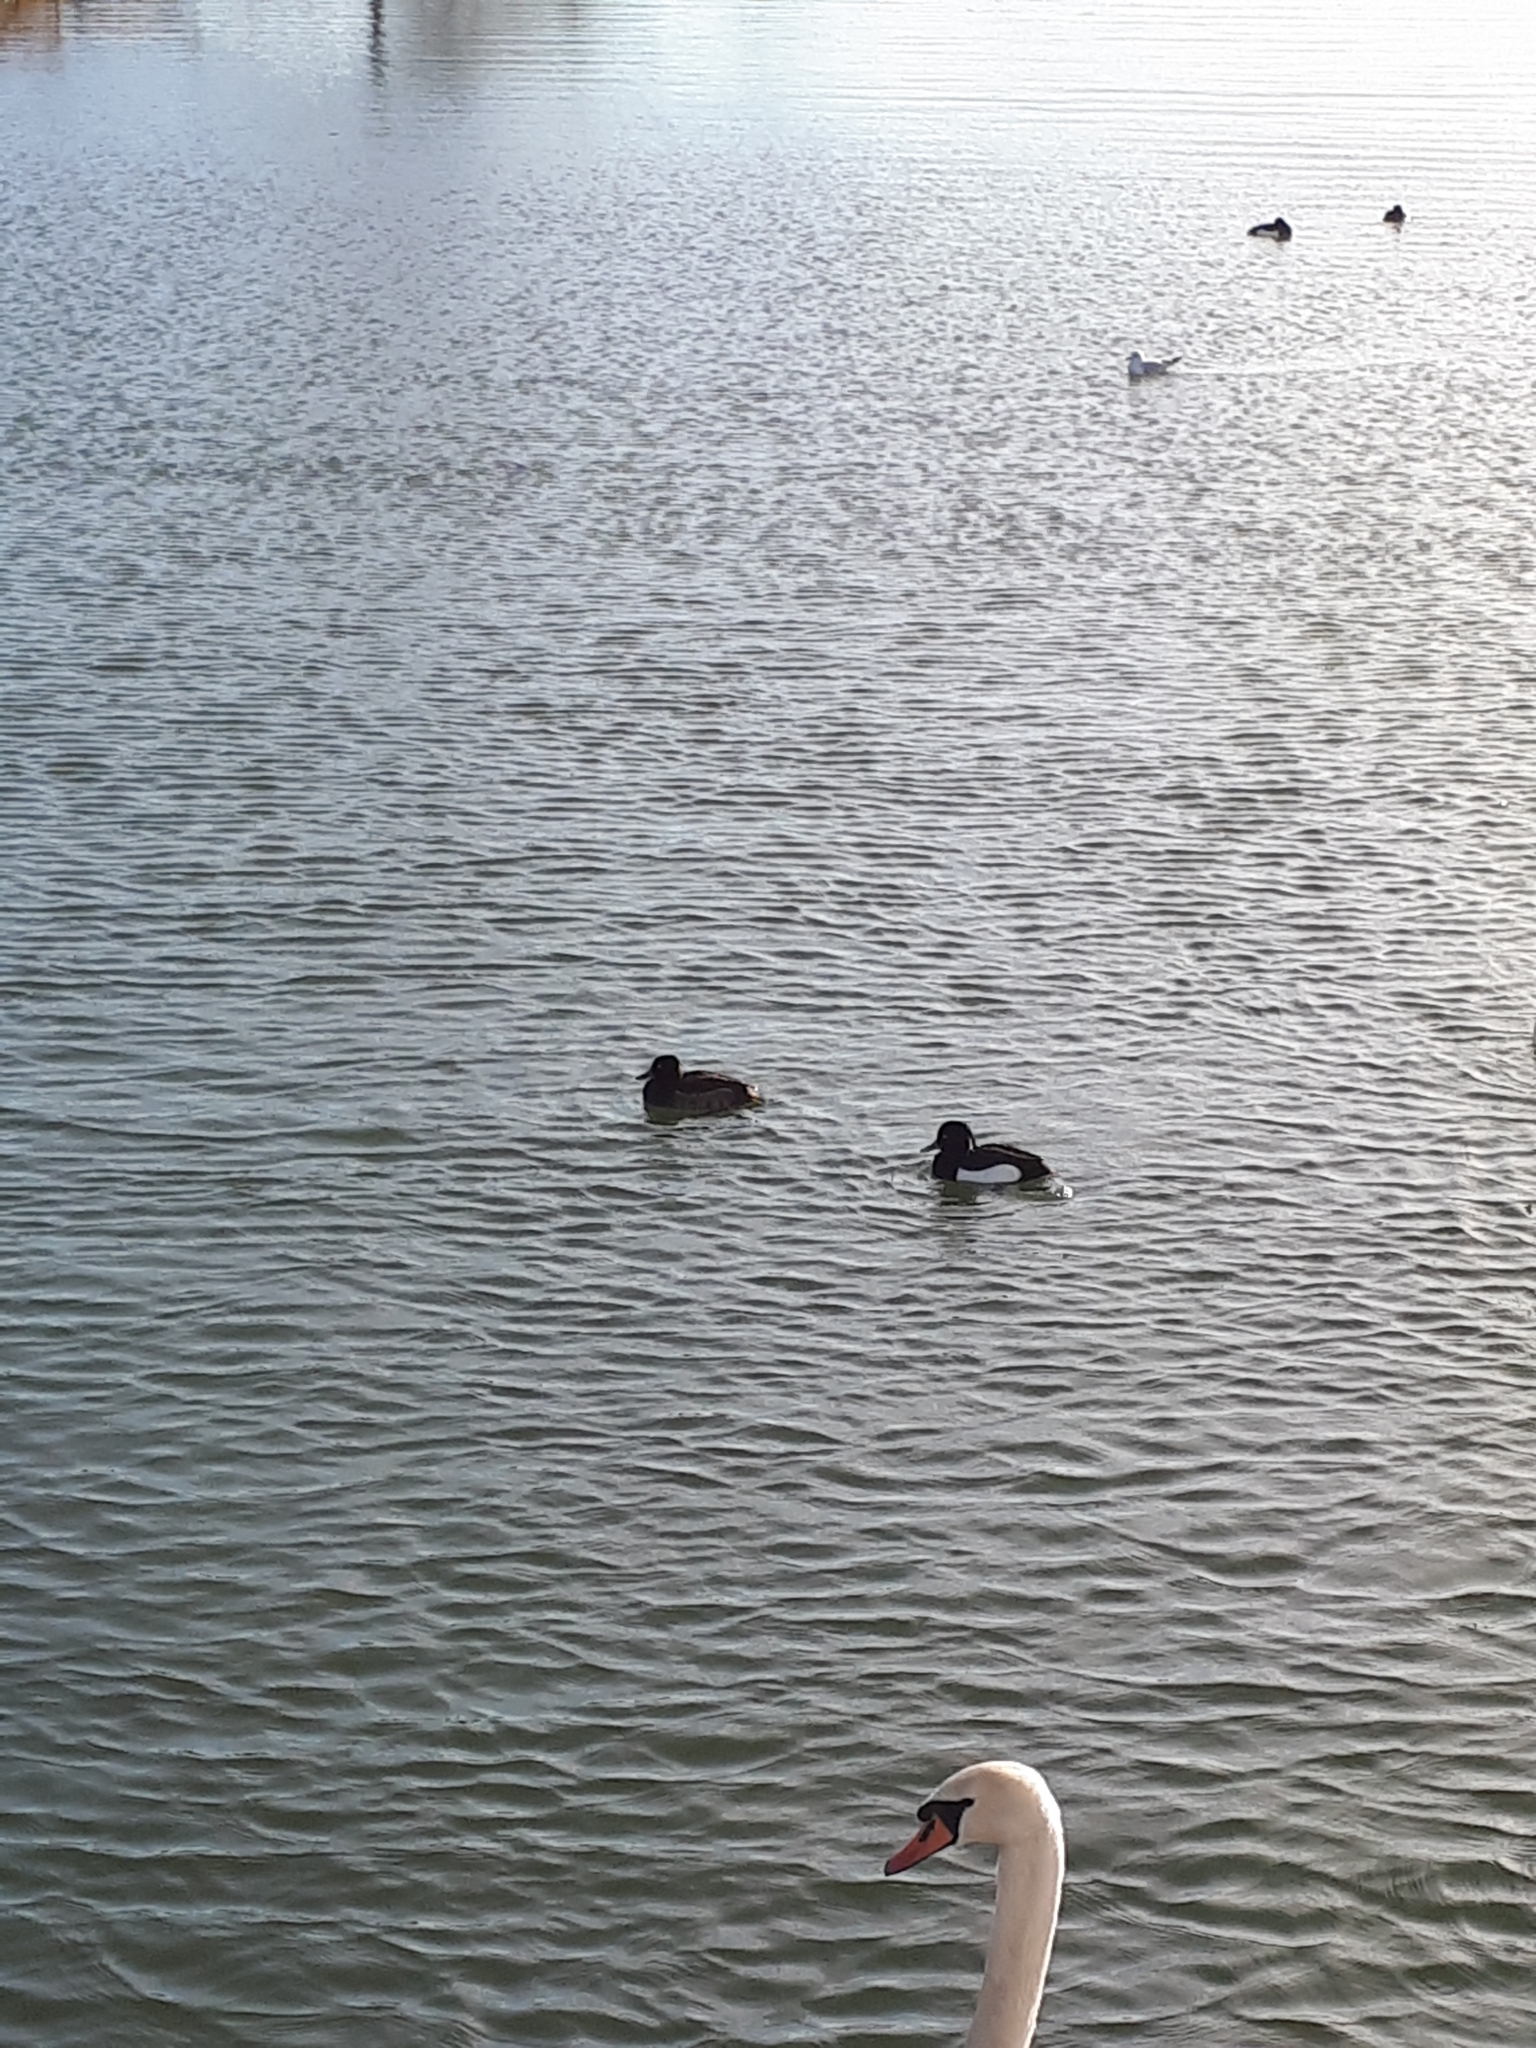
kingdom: Animalia
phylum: Chordata
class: Aves
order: Anseriformes
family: Anatidae
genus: Aythya
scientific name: Aythya fuligula
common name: Tufted duck
